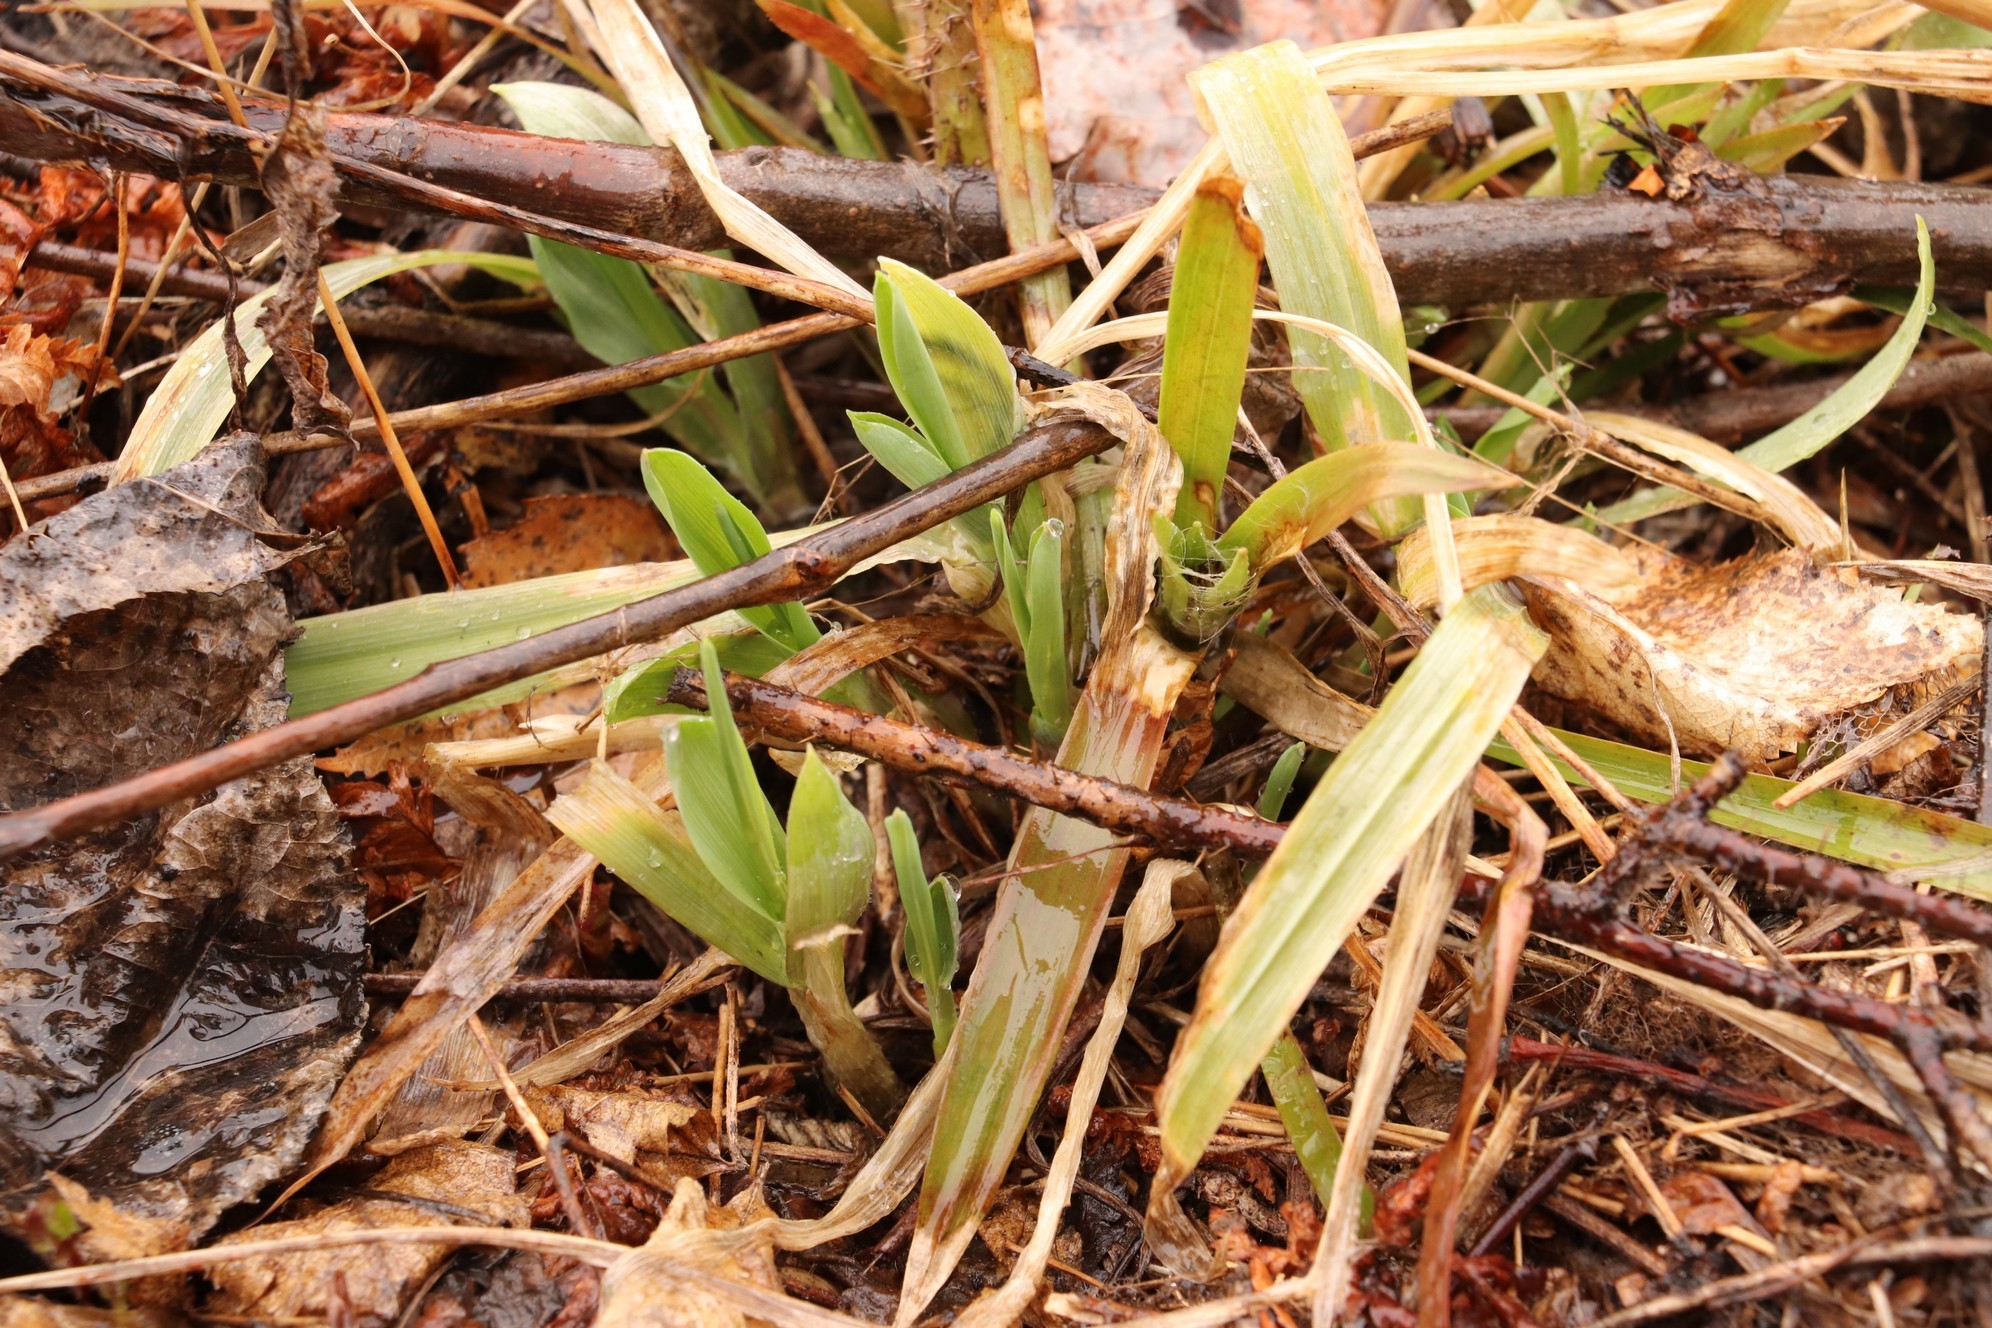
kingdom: Plantae
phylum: Tracheophyta
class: Liliopsida
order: Poales
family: Juncaceae
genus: Luzula
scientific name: Luzula pilosa
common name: Hairy wood-rush
